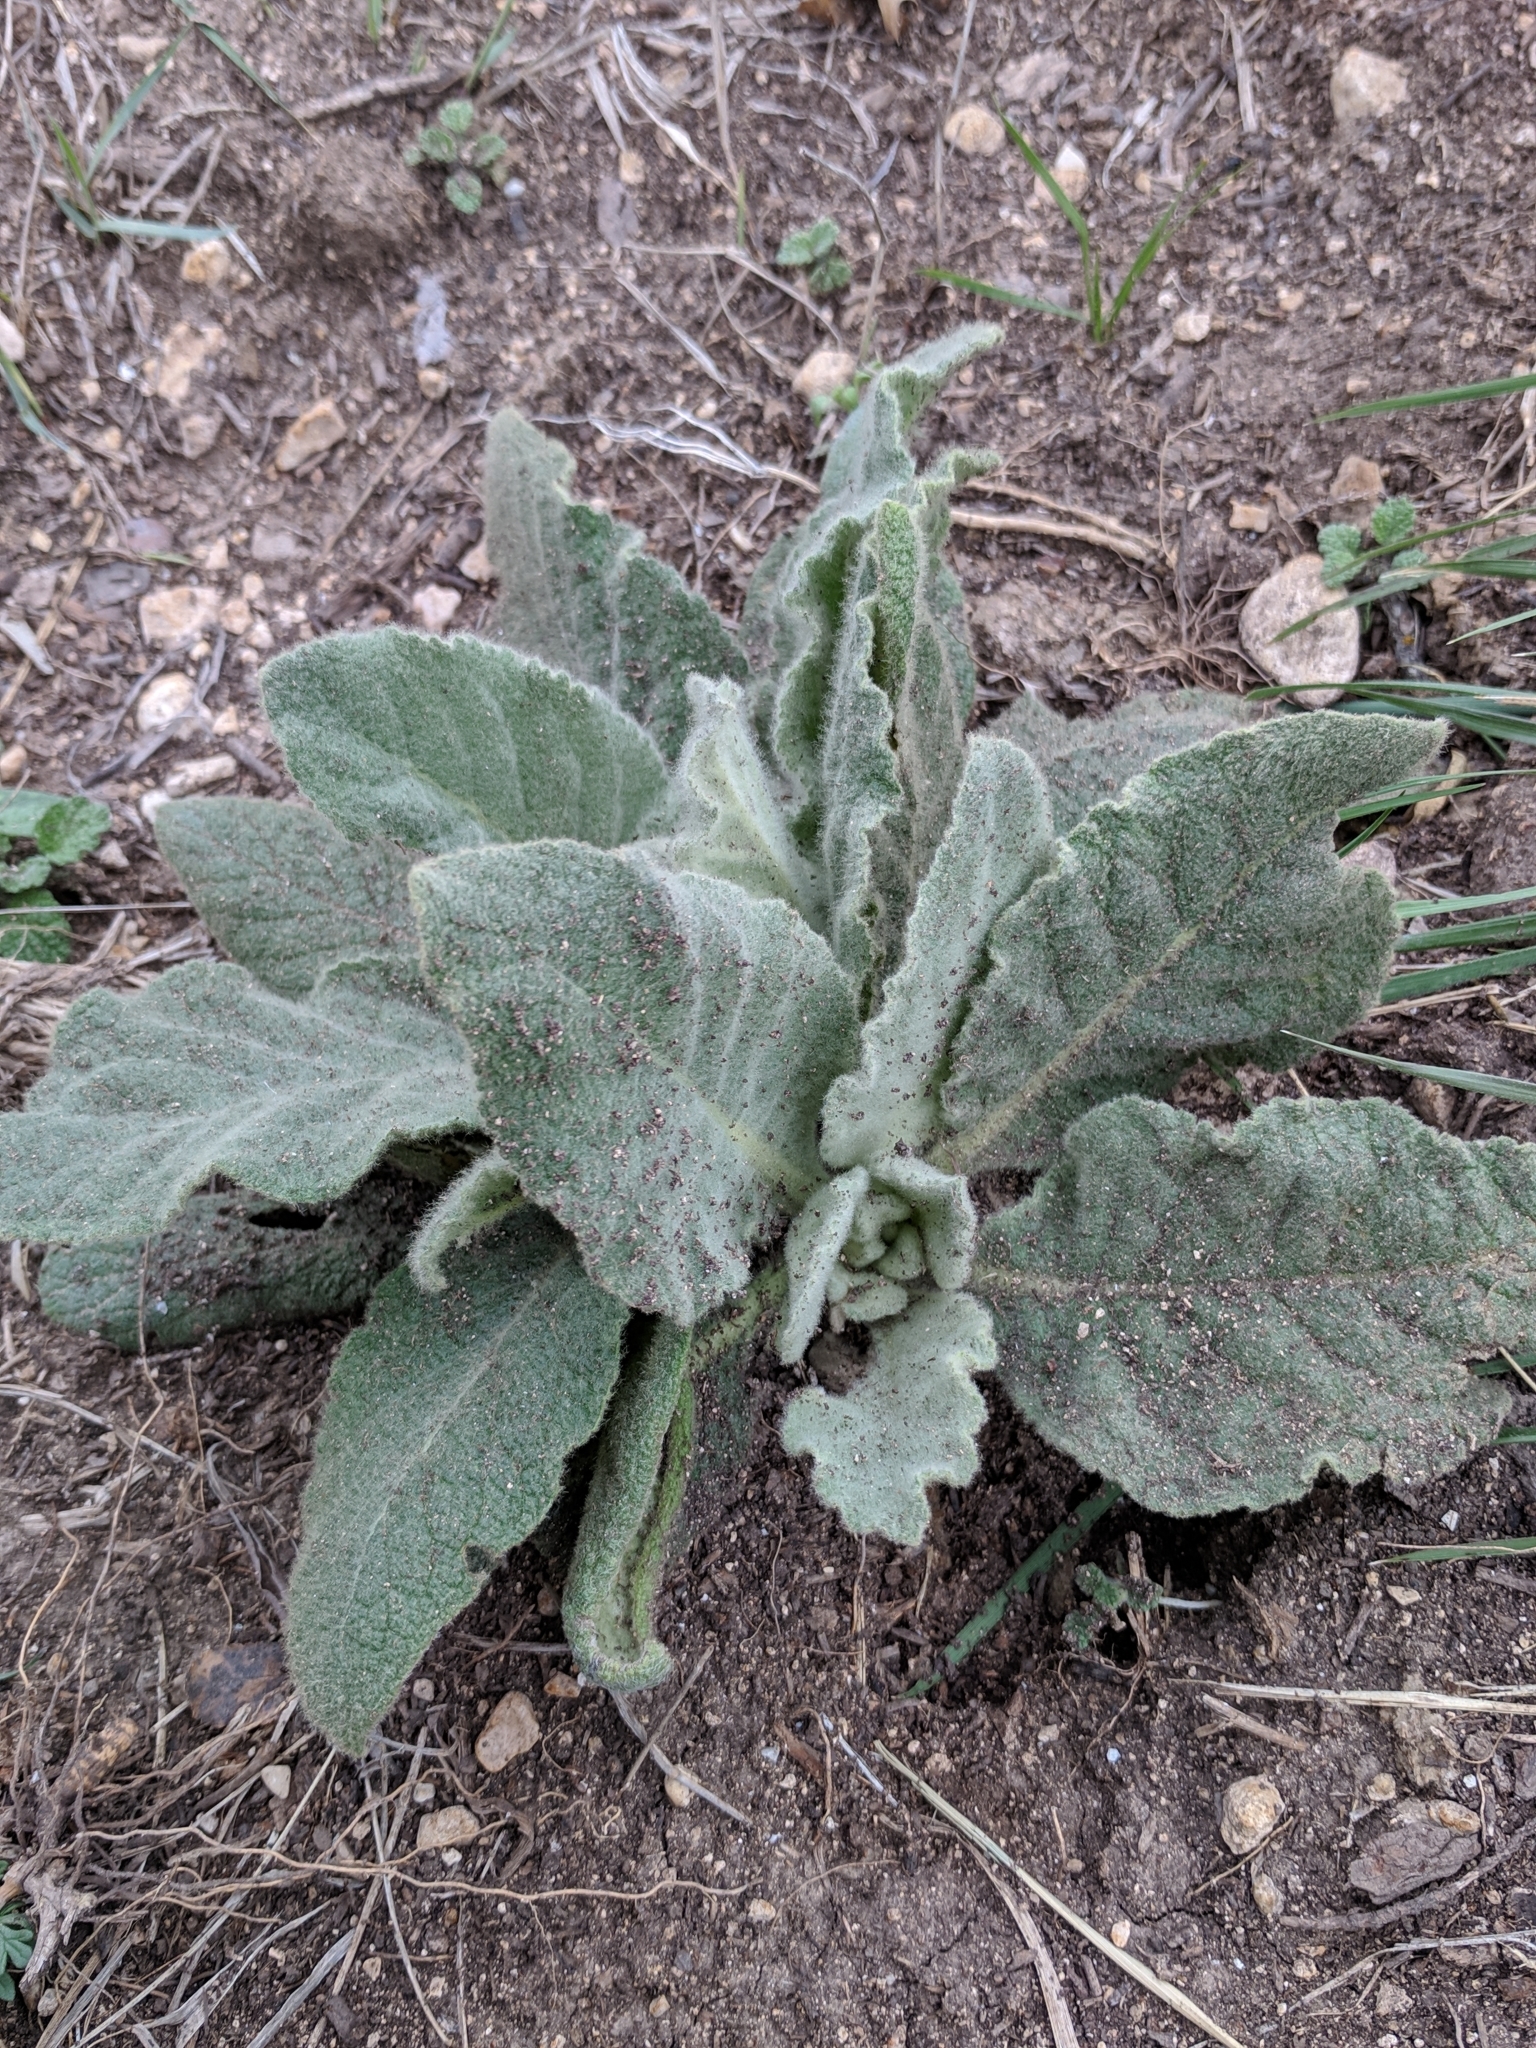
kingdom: Plantae
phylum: Tracheophyta
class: Magnoliopsida
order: Lamiales
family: Scrophulariaceae
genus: Verbascum
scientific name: Verbascum thapsus
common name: Common mullein
